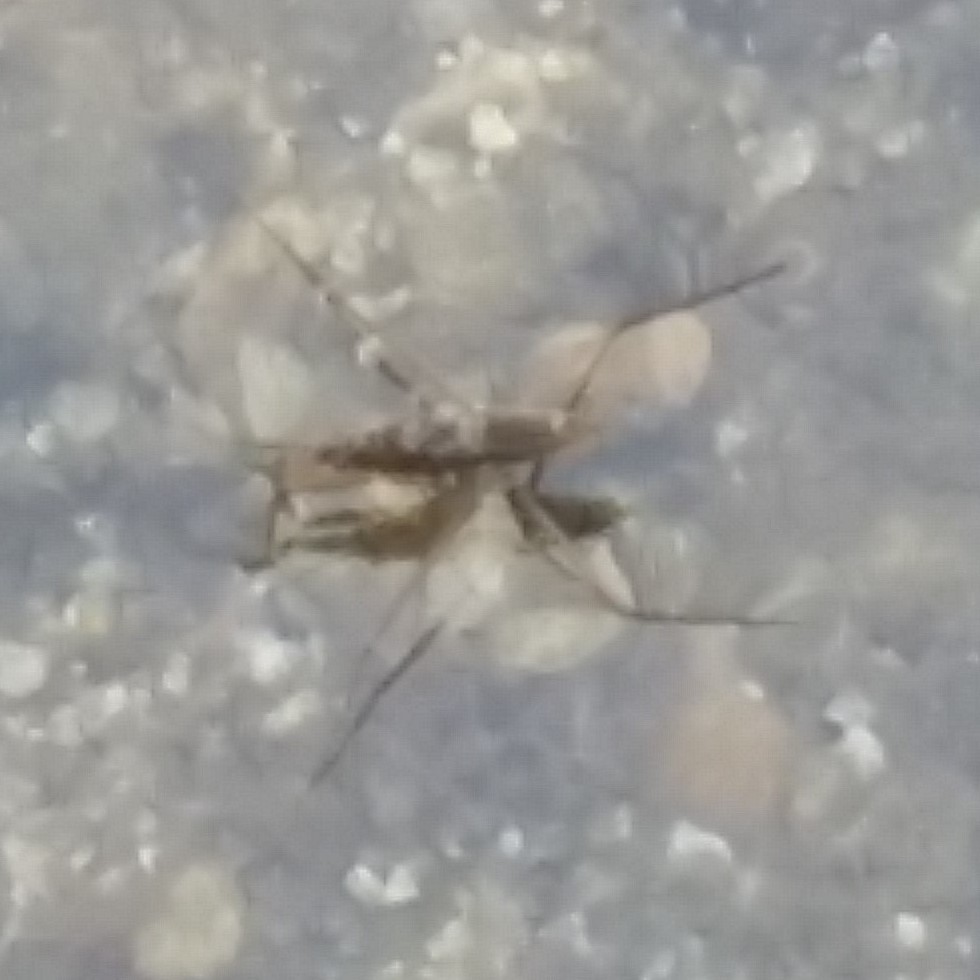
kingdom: Animalia
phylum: Arthropoda
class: Insecta
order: Hemiptera
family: Gerridae
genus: Aquarius
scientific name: Aquarius remigis
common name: Common water strider
